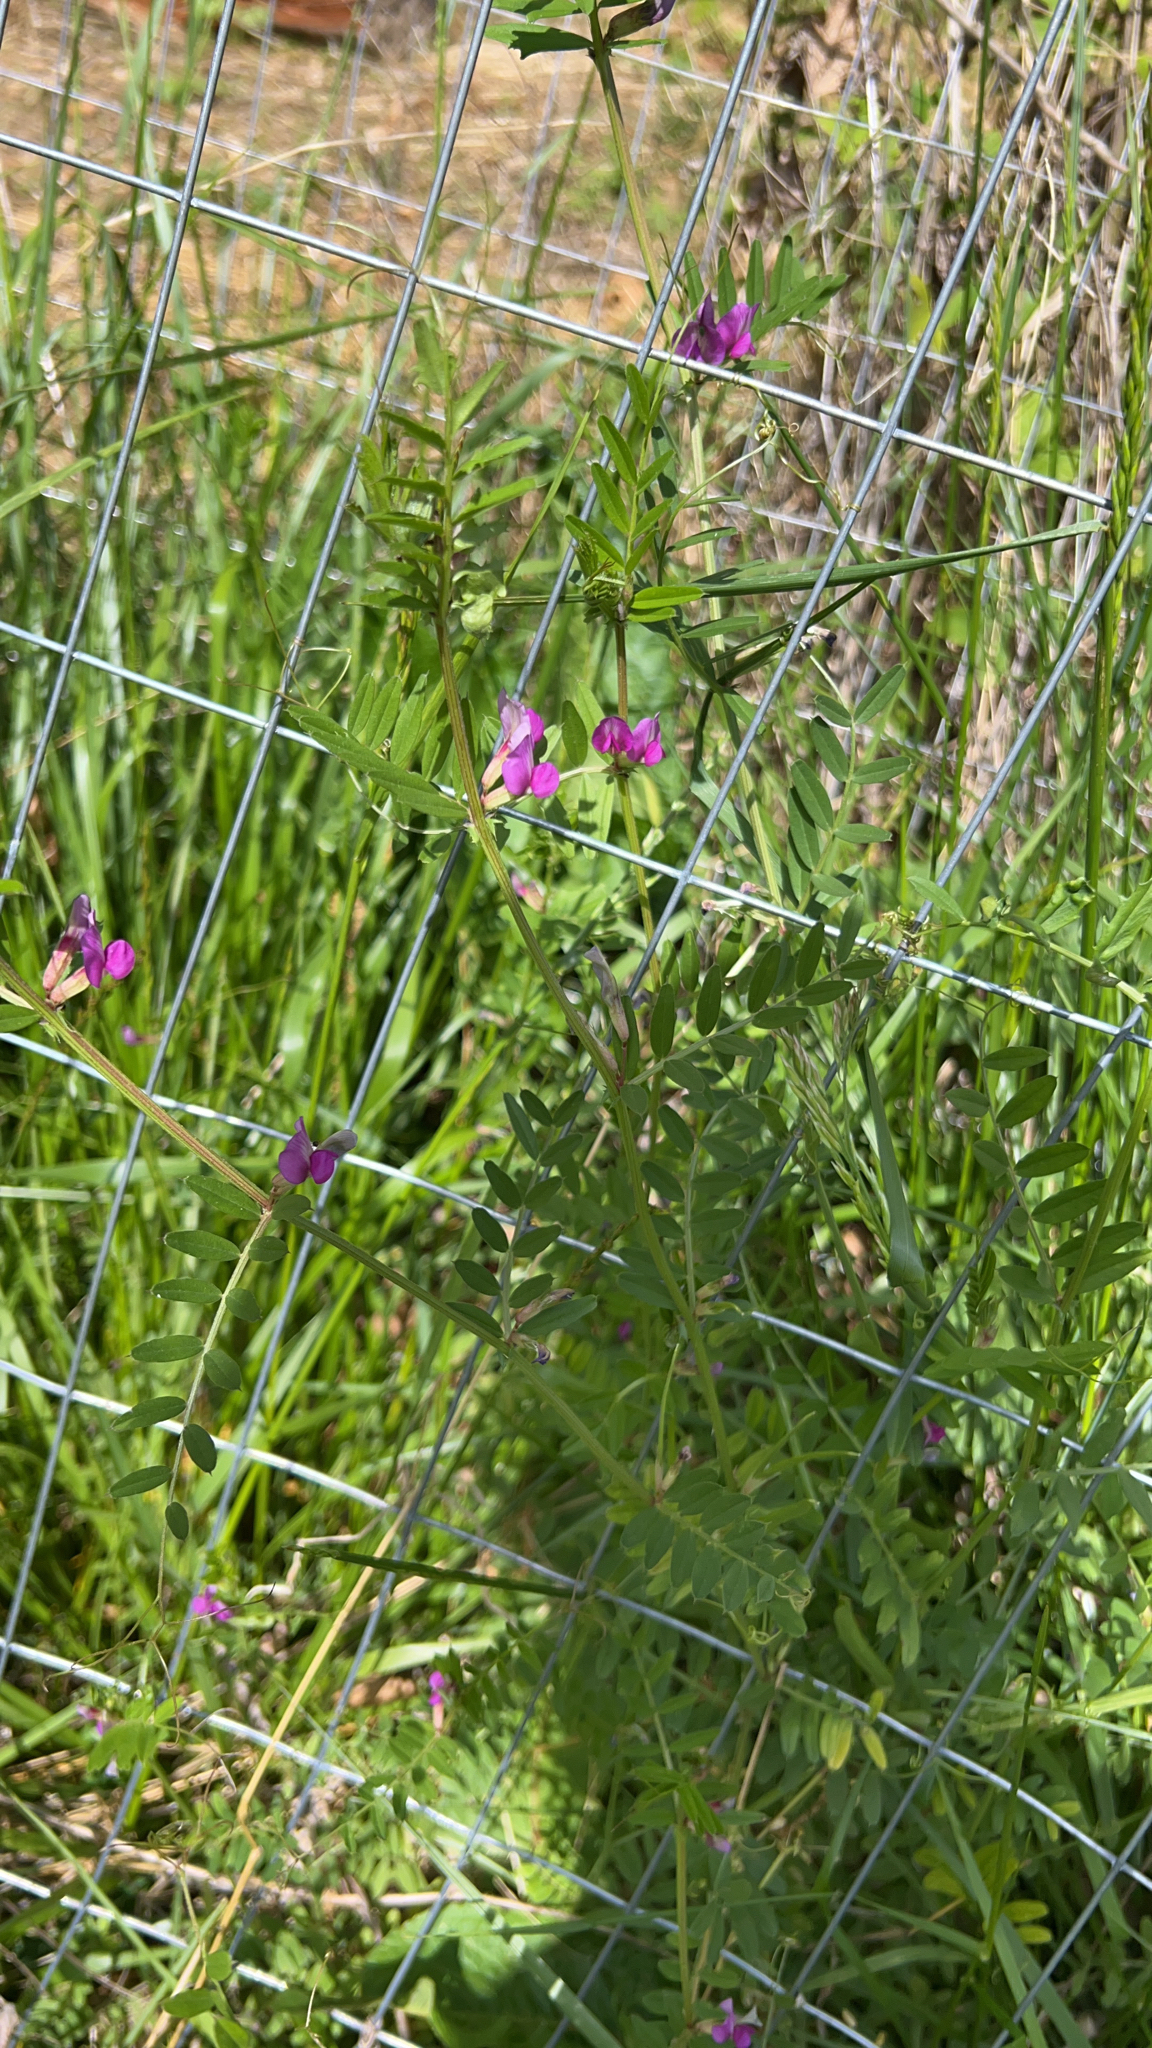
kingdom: Plantae
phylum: Tracheophyta
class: Magnoliopsida
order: Fabales
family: Fabaceae
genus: Vicia
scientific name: Vicia sativa
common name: Garden vetch
